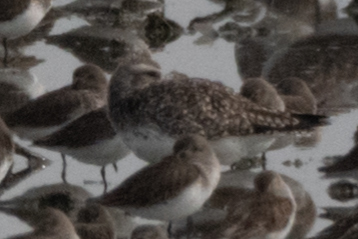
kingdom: Animalia
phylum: Chordata
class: Aves
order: Charadriiformes
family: Charadriidae
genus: Pluvialis
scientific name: Pluvialis squatarola
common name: Grey plover
